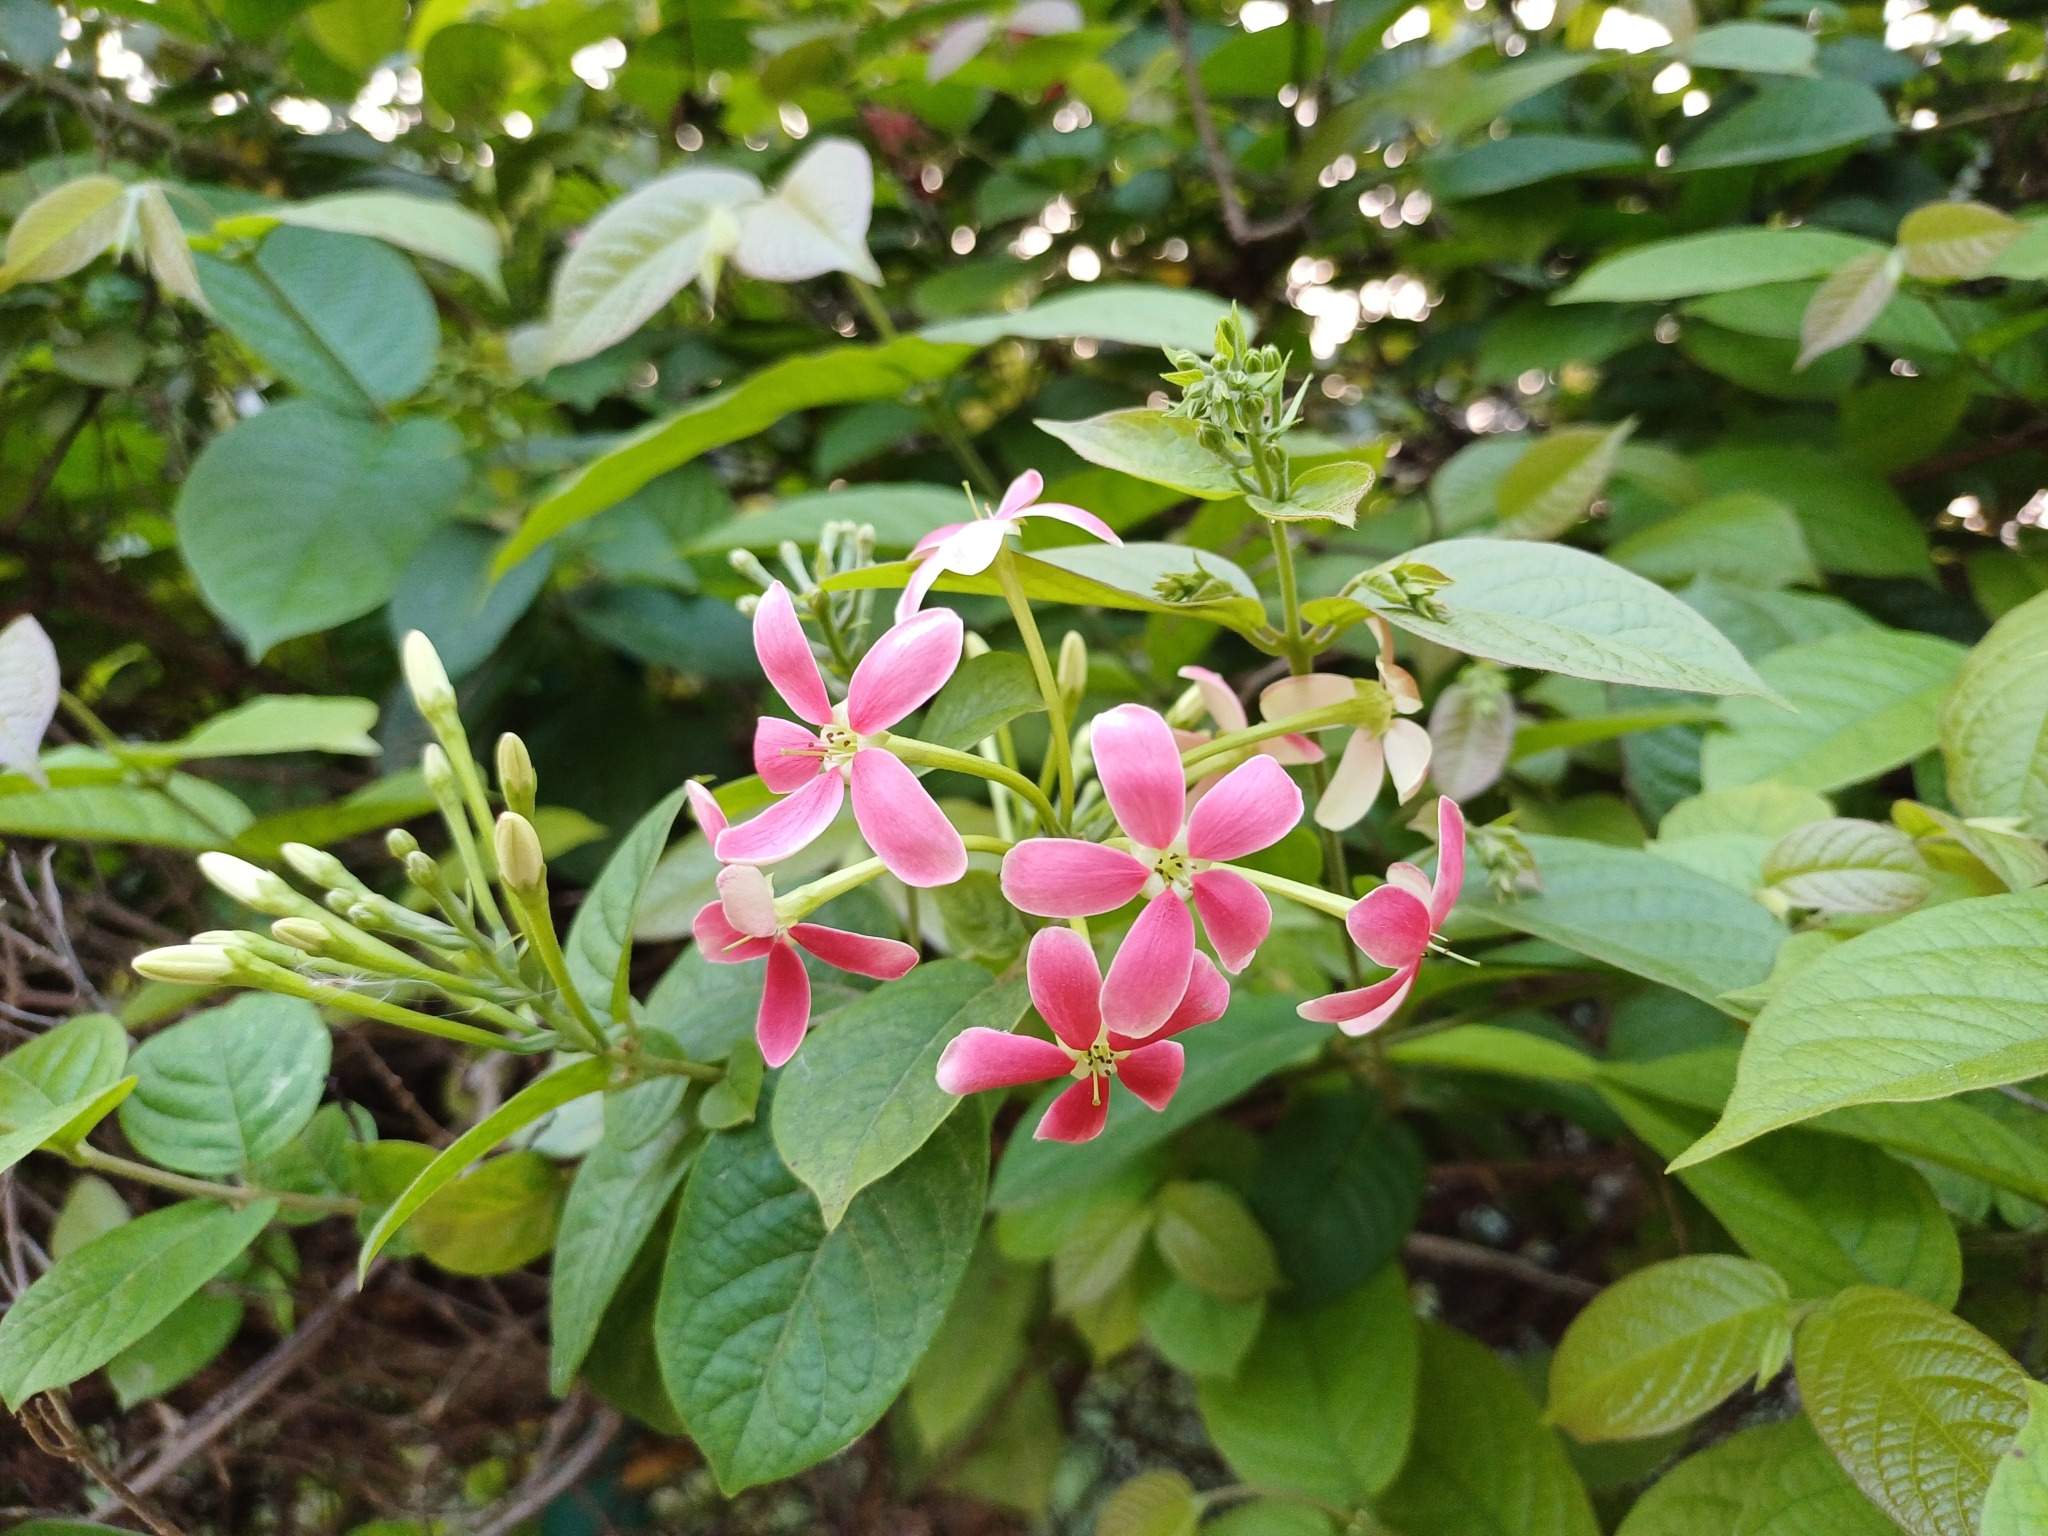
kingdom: Plantae
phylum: Tracheophyta
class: Magnoliopsida
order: Myrtales
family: Combretaceae
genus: Combretum
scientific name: Combretum indicum
